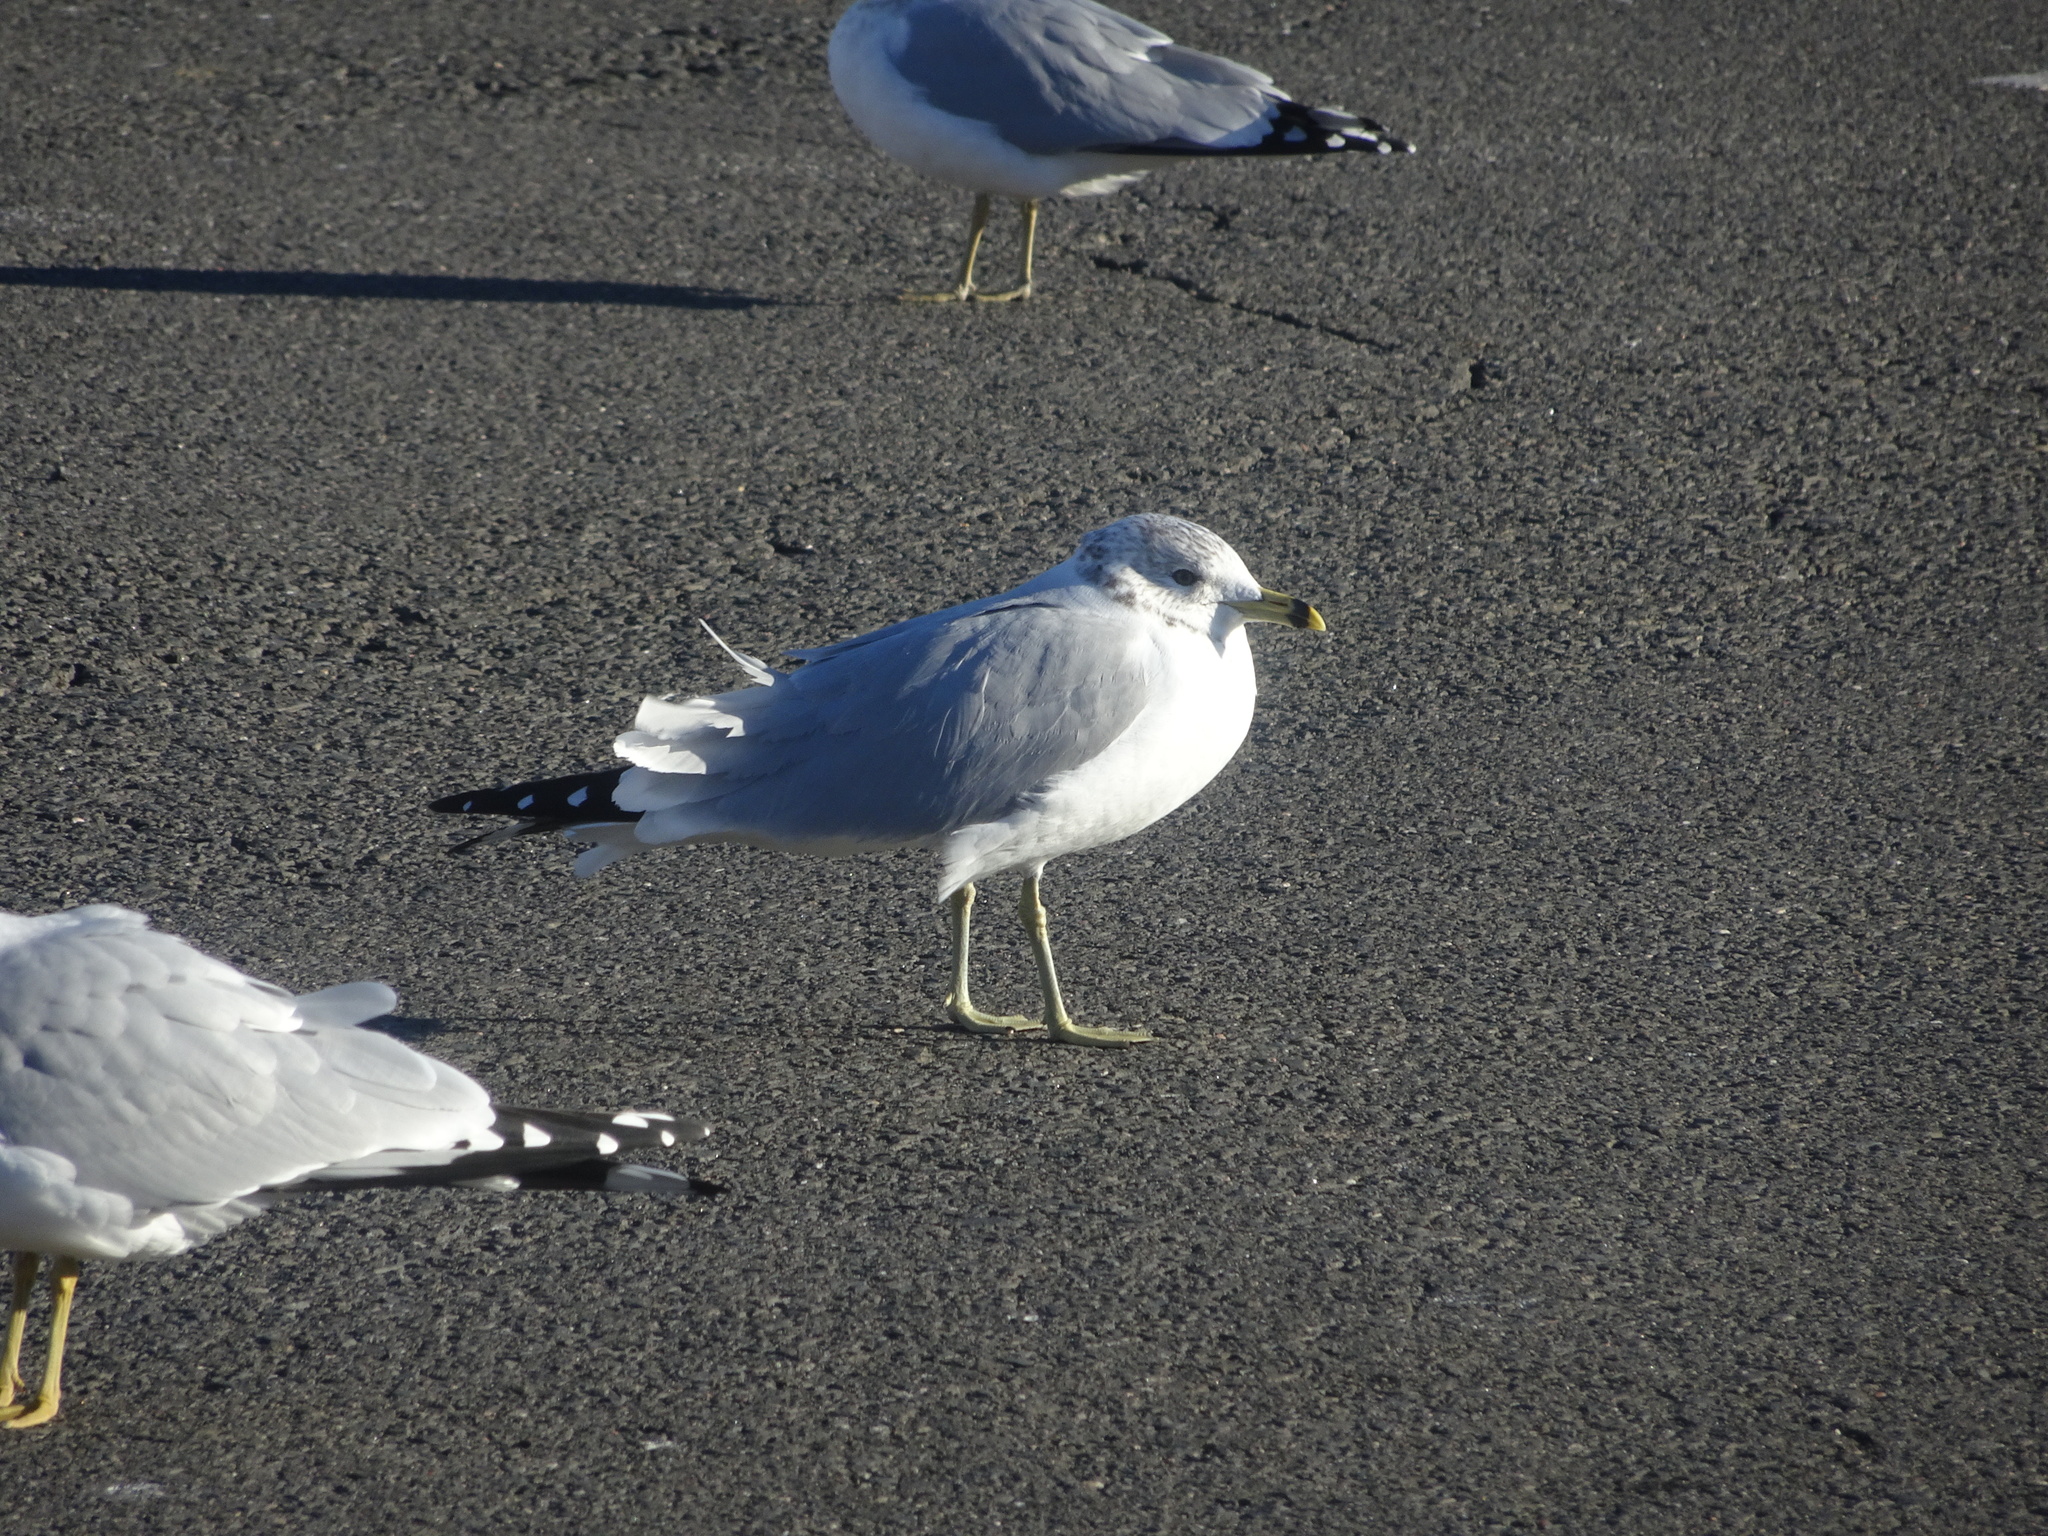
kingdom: Animalia
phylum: Chordata
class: Aves
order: Charadriiformes
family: Laridae
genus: Larus
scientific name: Larus delawarensis
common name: Ring-billed gull
